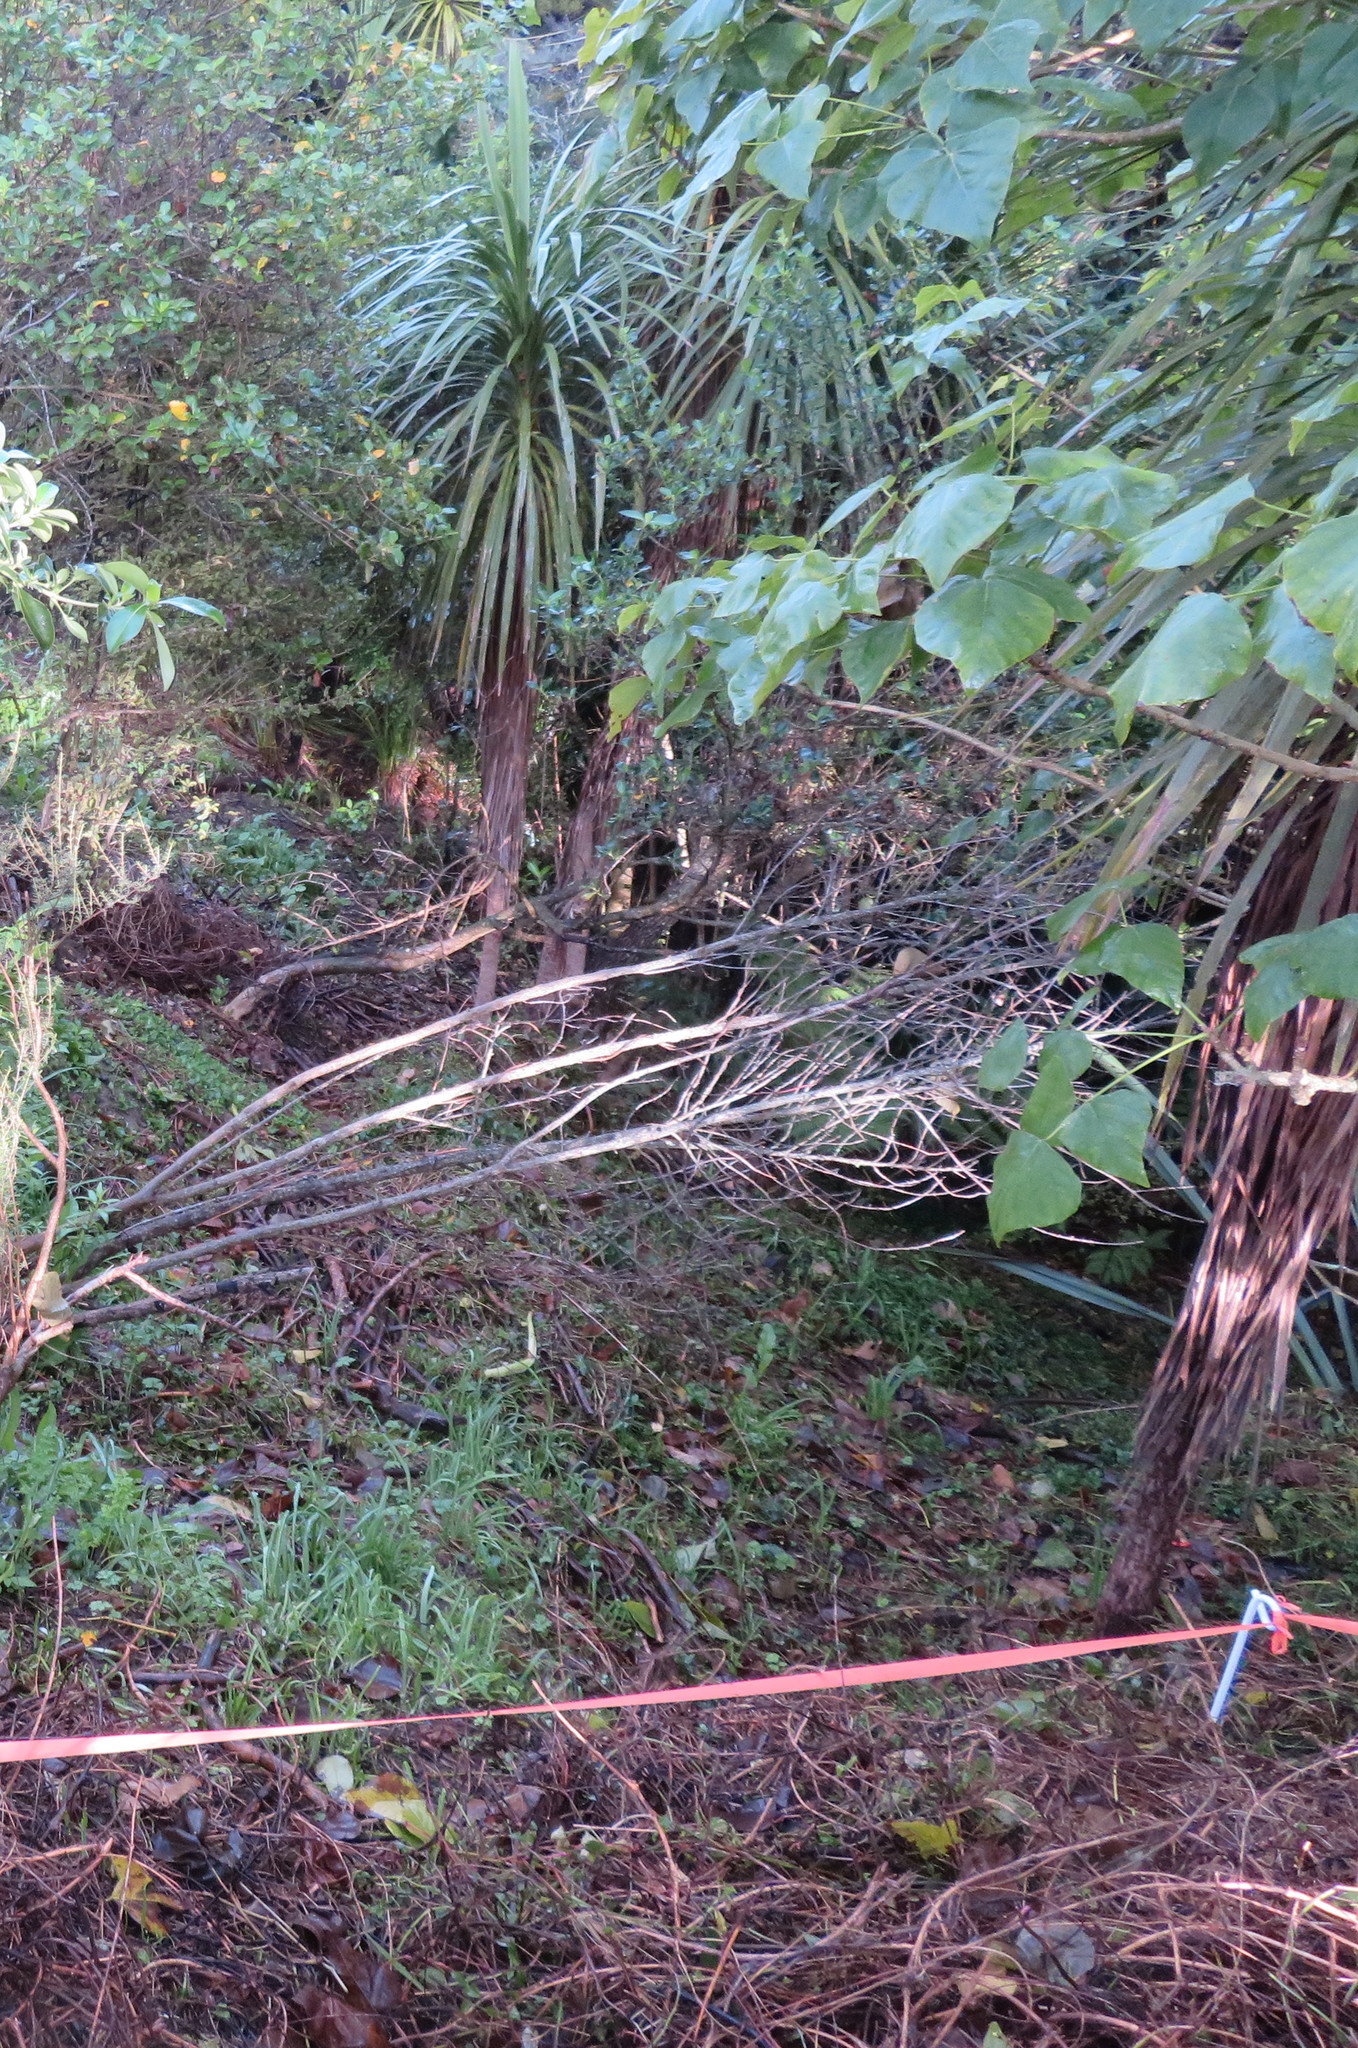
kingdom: Plantae
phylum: Tracheophyta
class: Liliopsida
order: Asparagales
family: Asparagaceae
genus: Cordyline
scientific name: Cordyline australis
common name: Cabbage-palm
